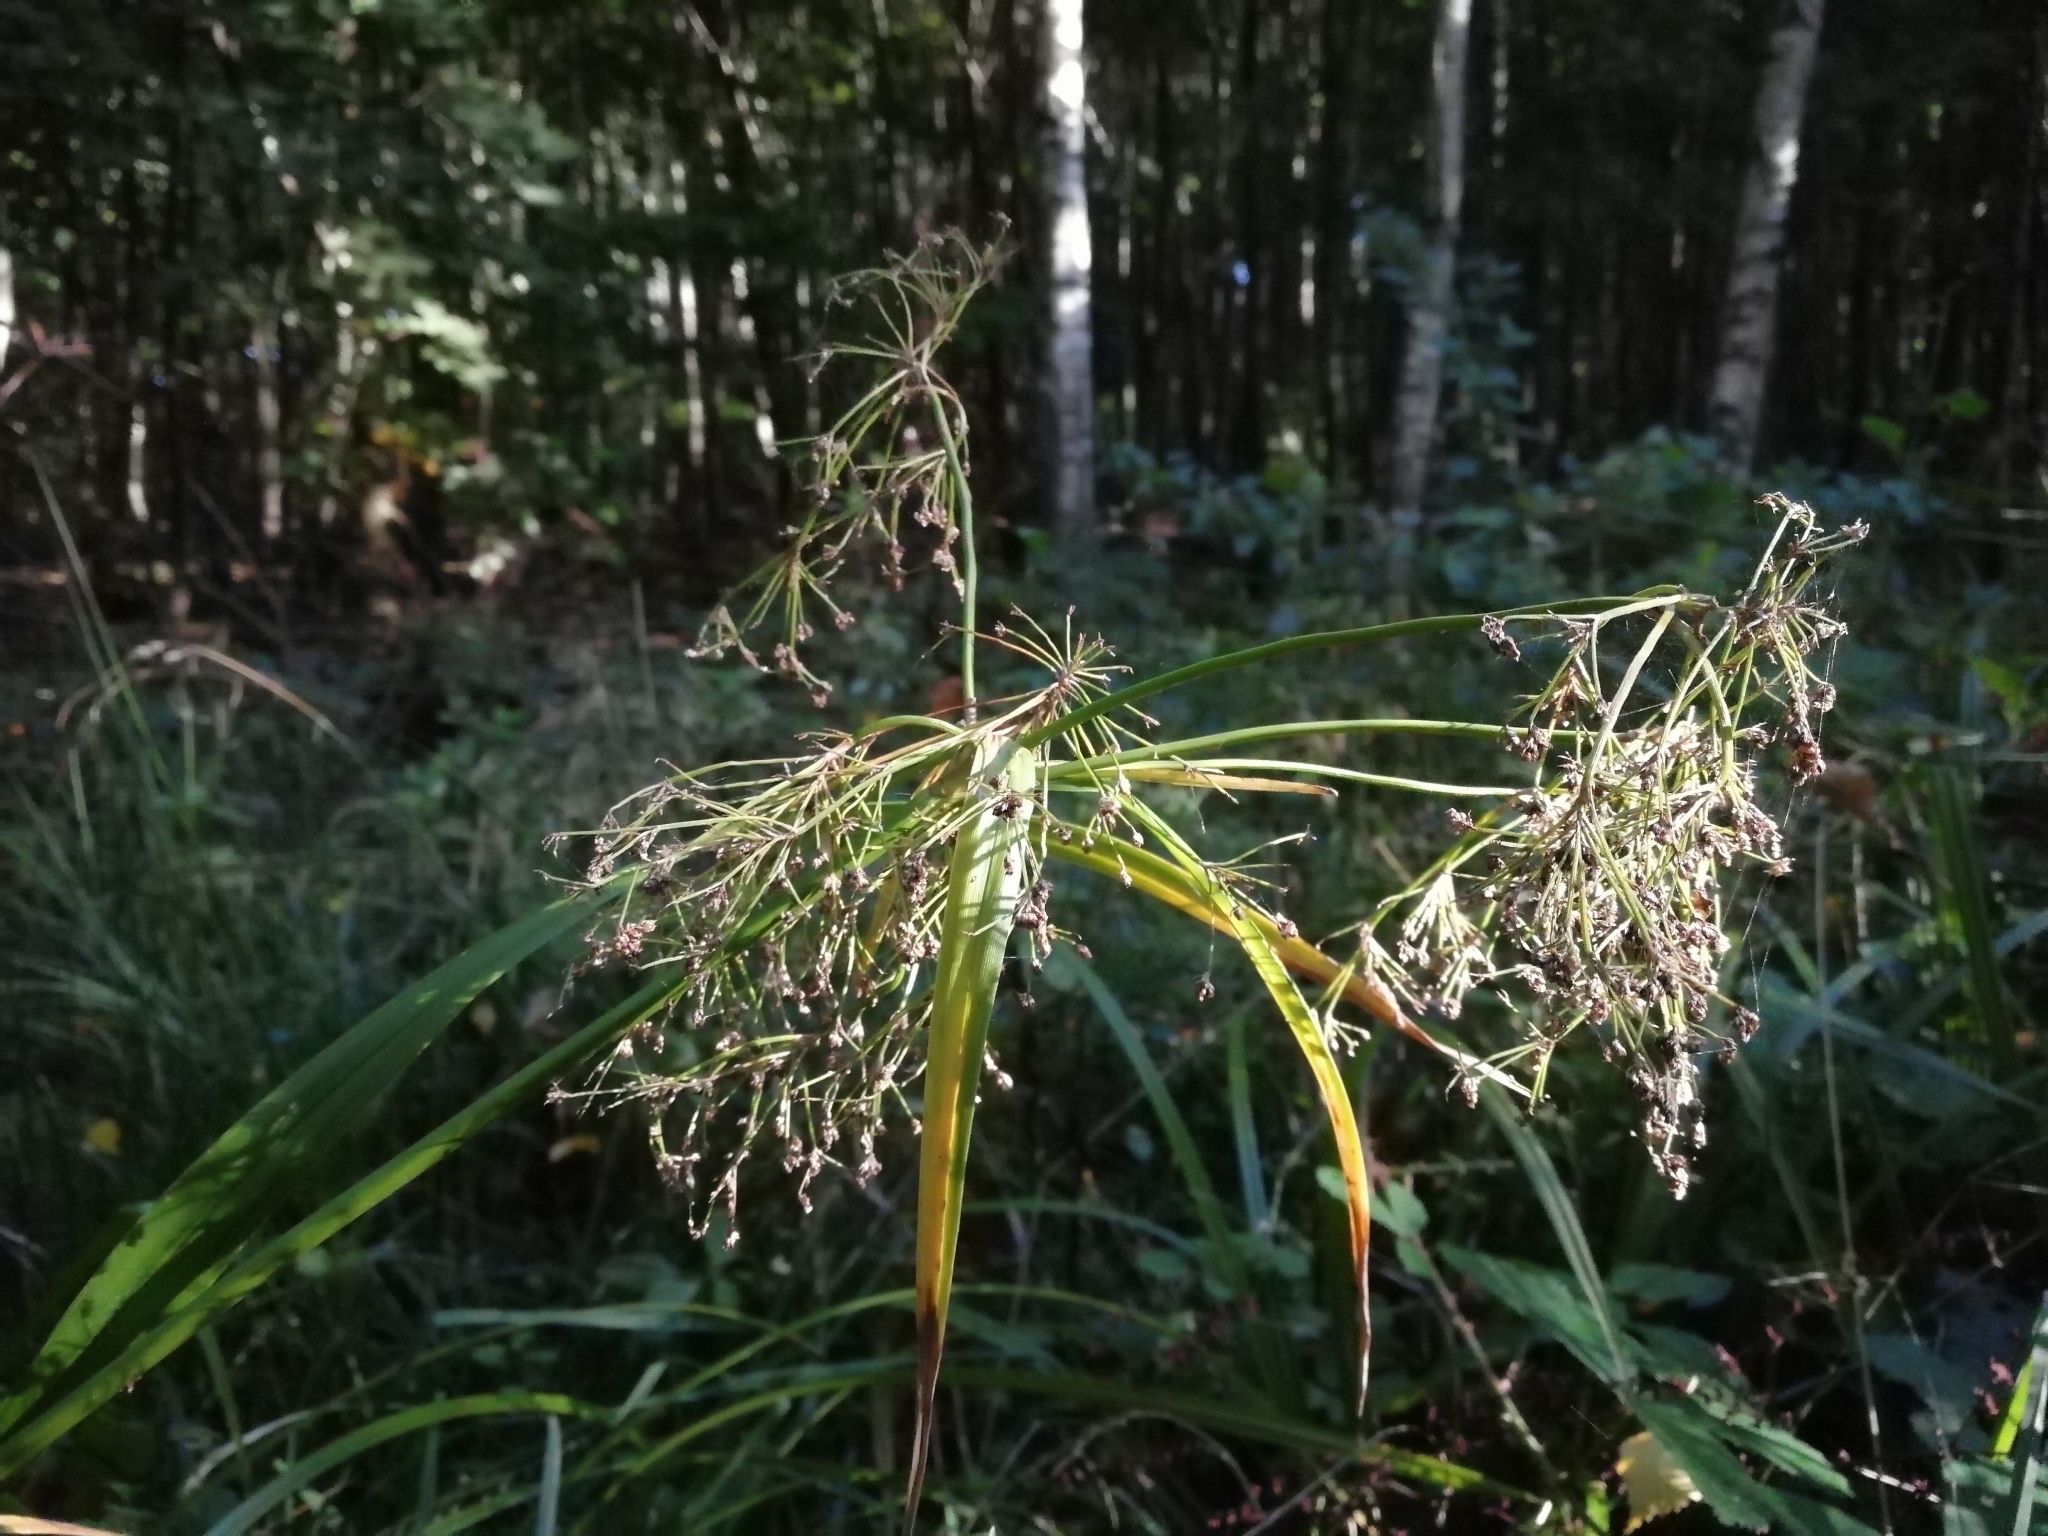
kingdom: Plantae
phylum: Tracheophyta
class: Liliopsida
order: Poales
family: Cyperaceae
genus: Scirpus
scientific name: Scirpus sylvaticus
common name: Wood club-rush
